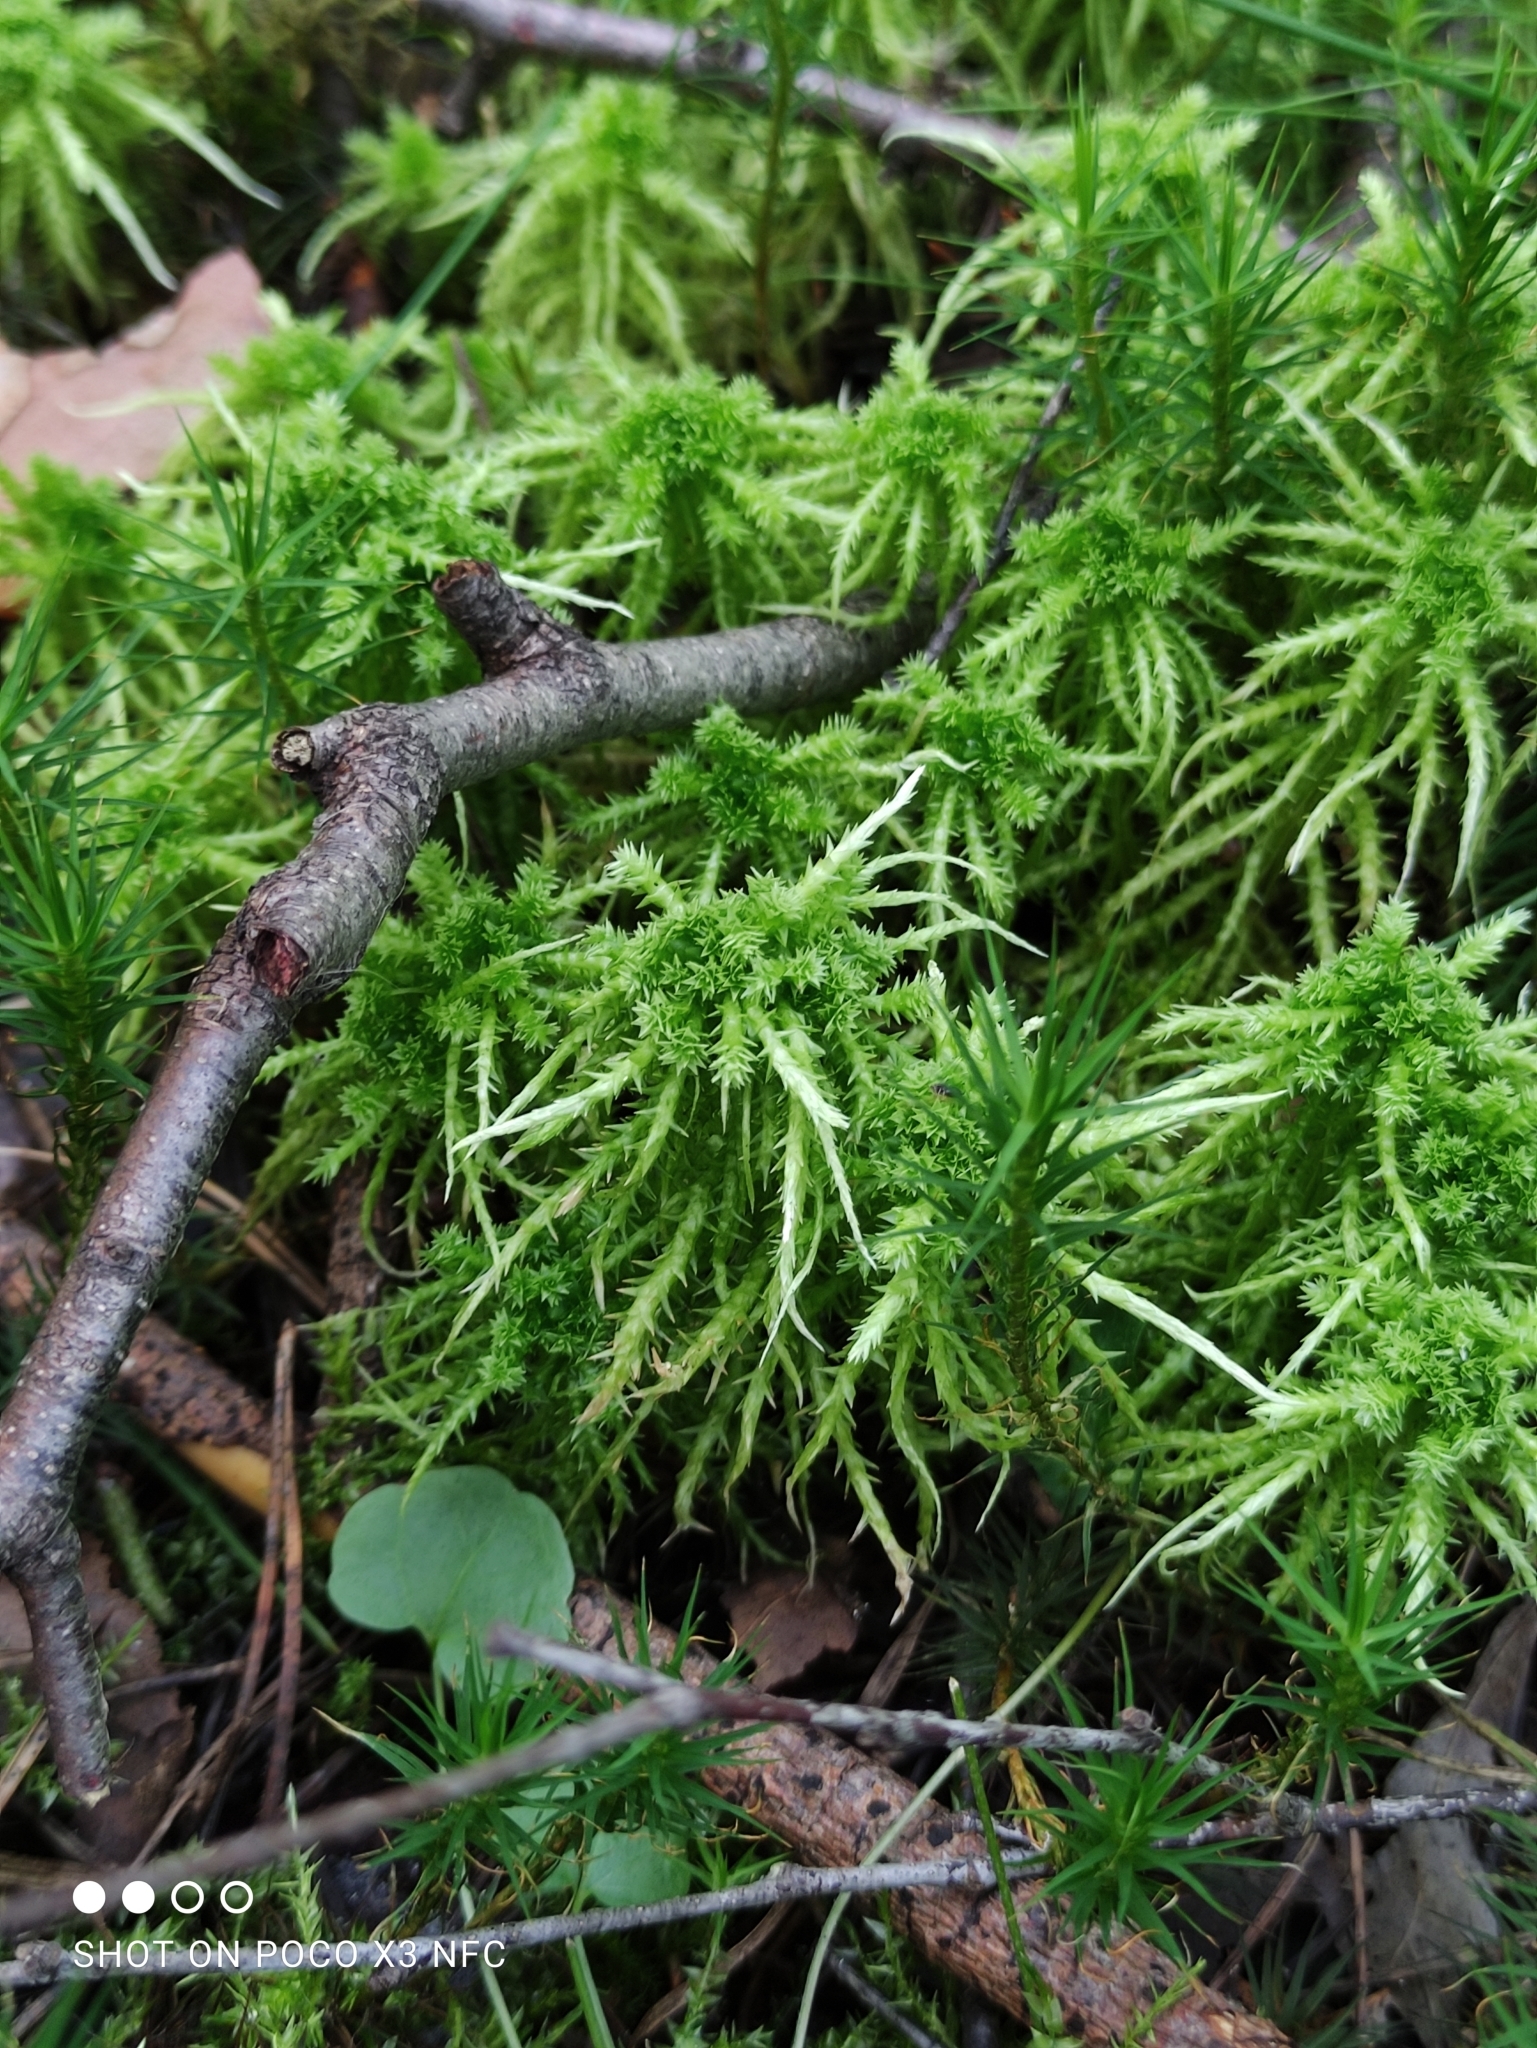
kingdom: Plantae
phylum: Bryophyta
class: Sphagnopsida
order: Sphagnales
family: Sphagnaceae
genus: Sphagnum
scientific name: Sphagnum squarrosum
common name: Shaggy peat moss
